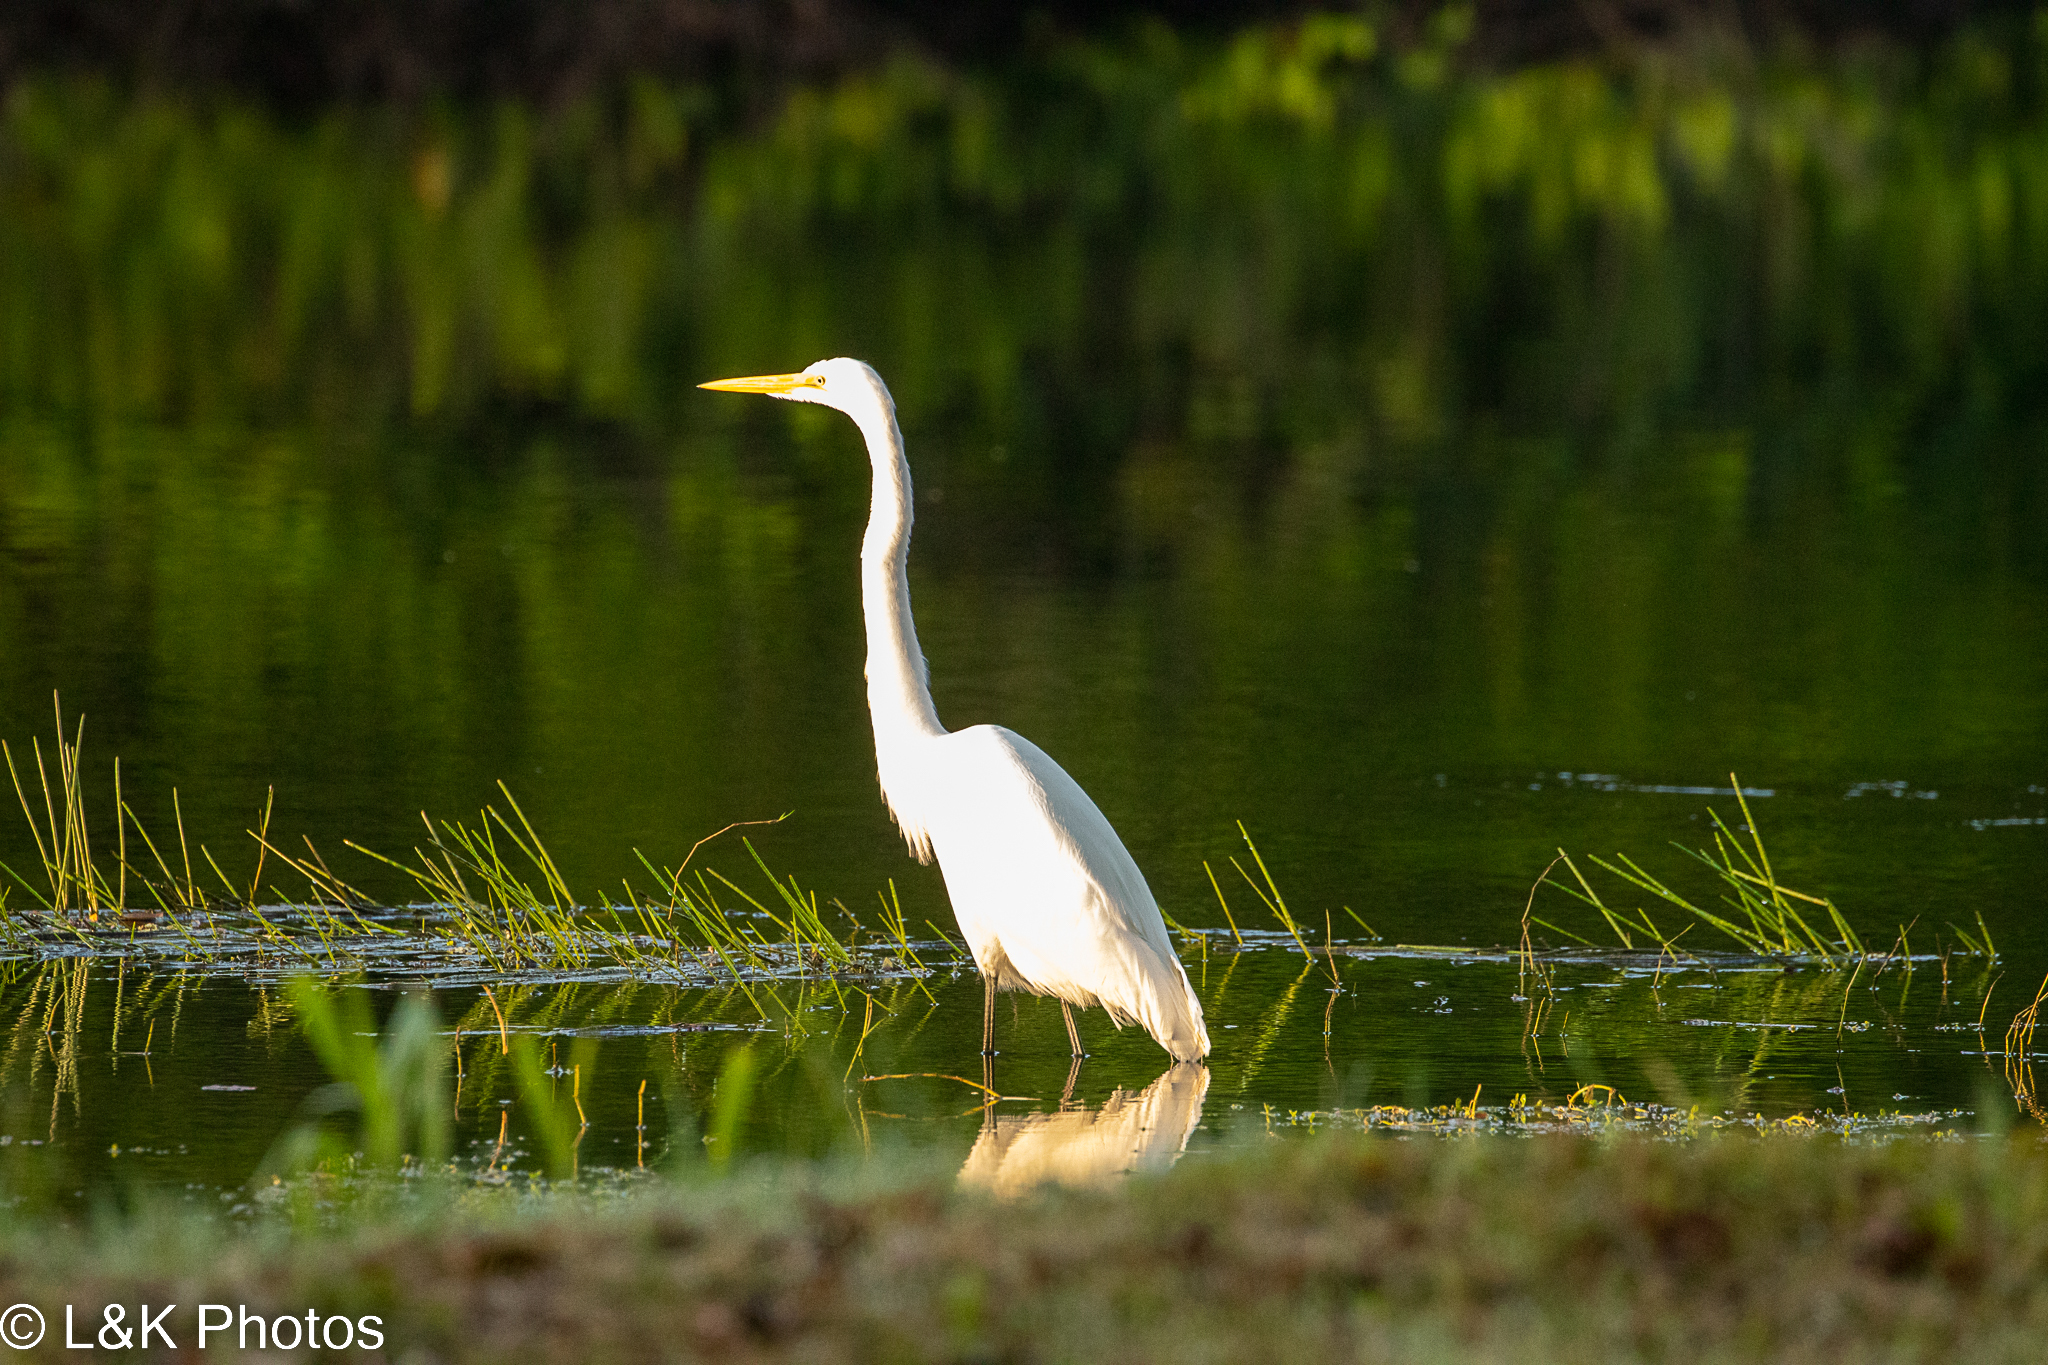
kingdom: Animalia
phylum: Chordata
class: Aves
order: Pelecaniformes
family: Ardeidae
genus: Ardea
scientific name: Ardea alba
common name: Great egret
